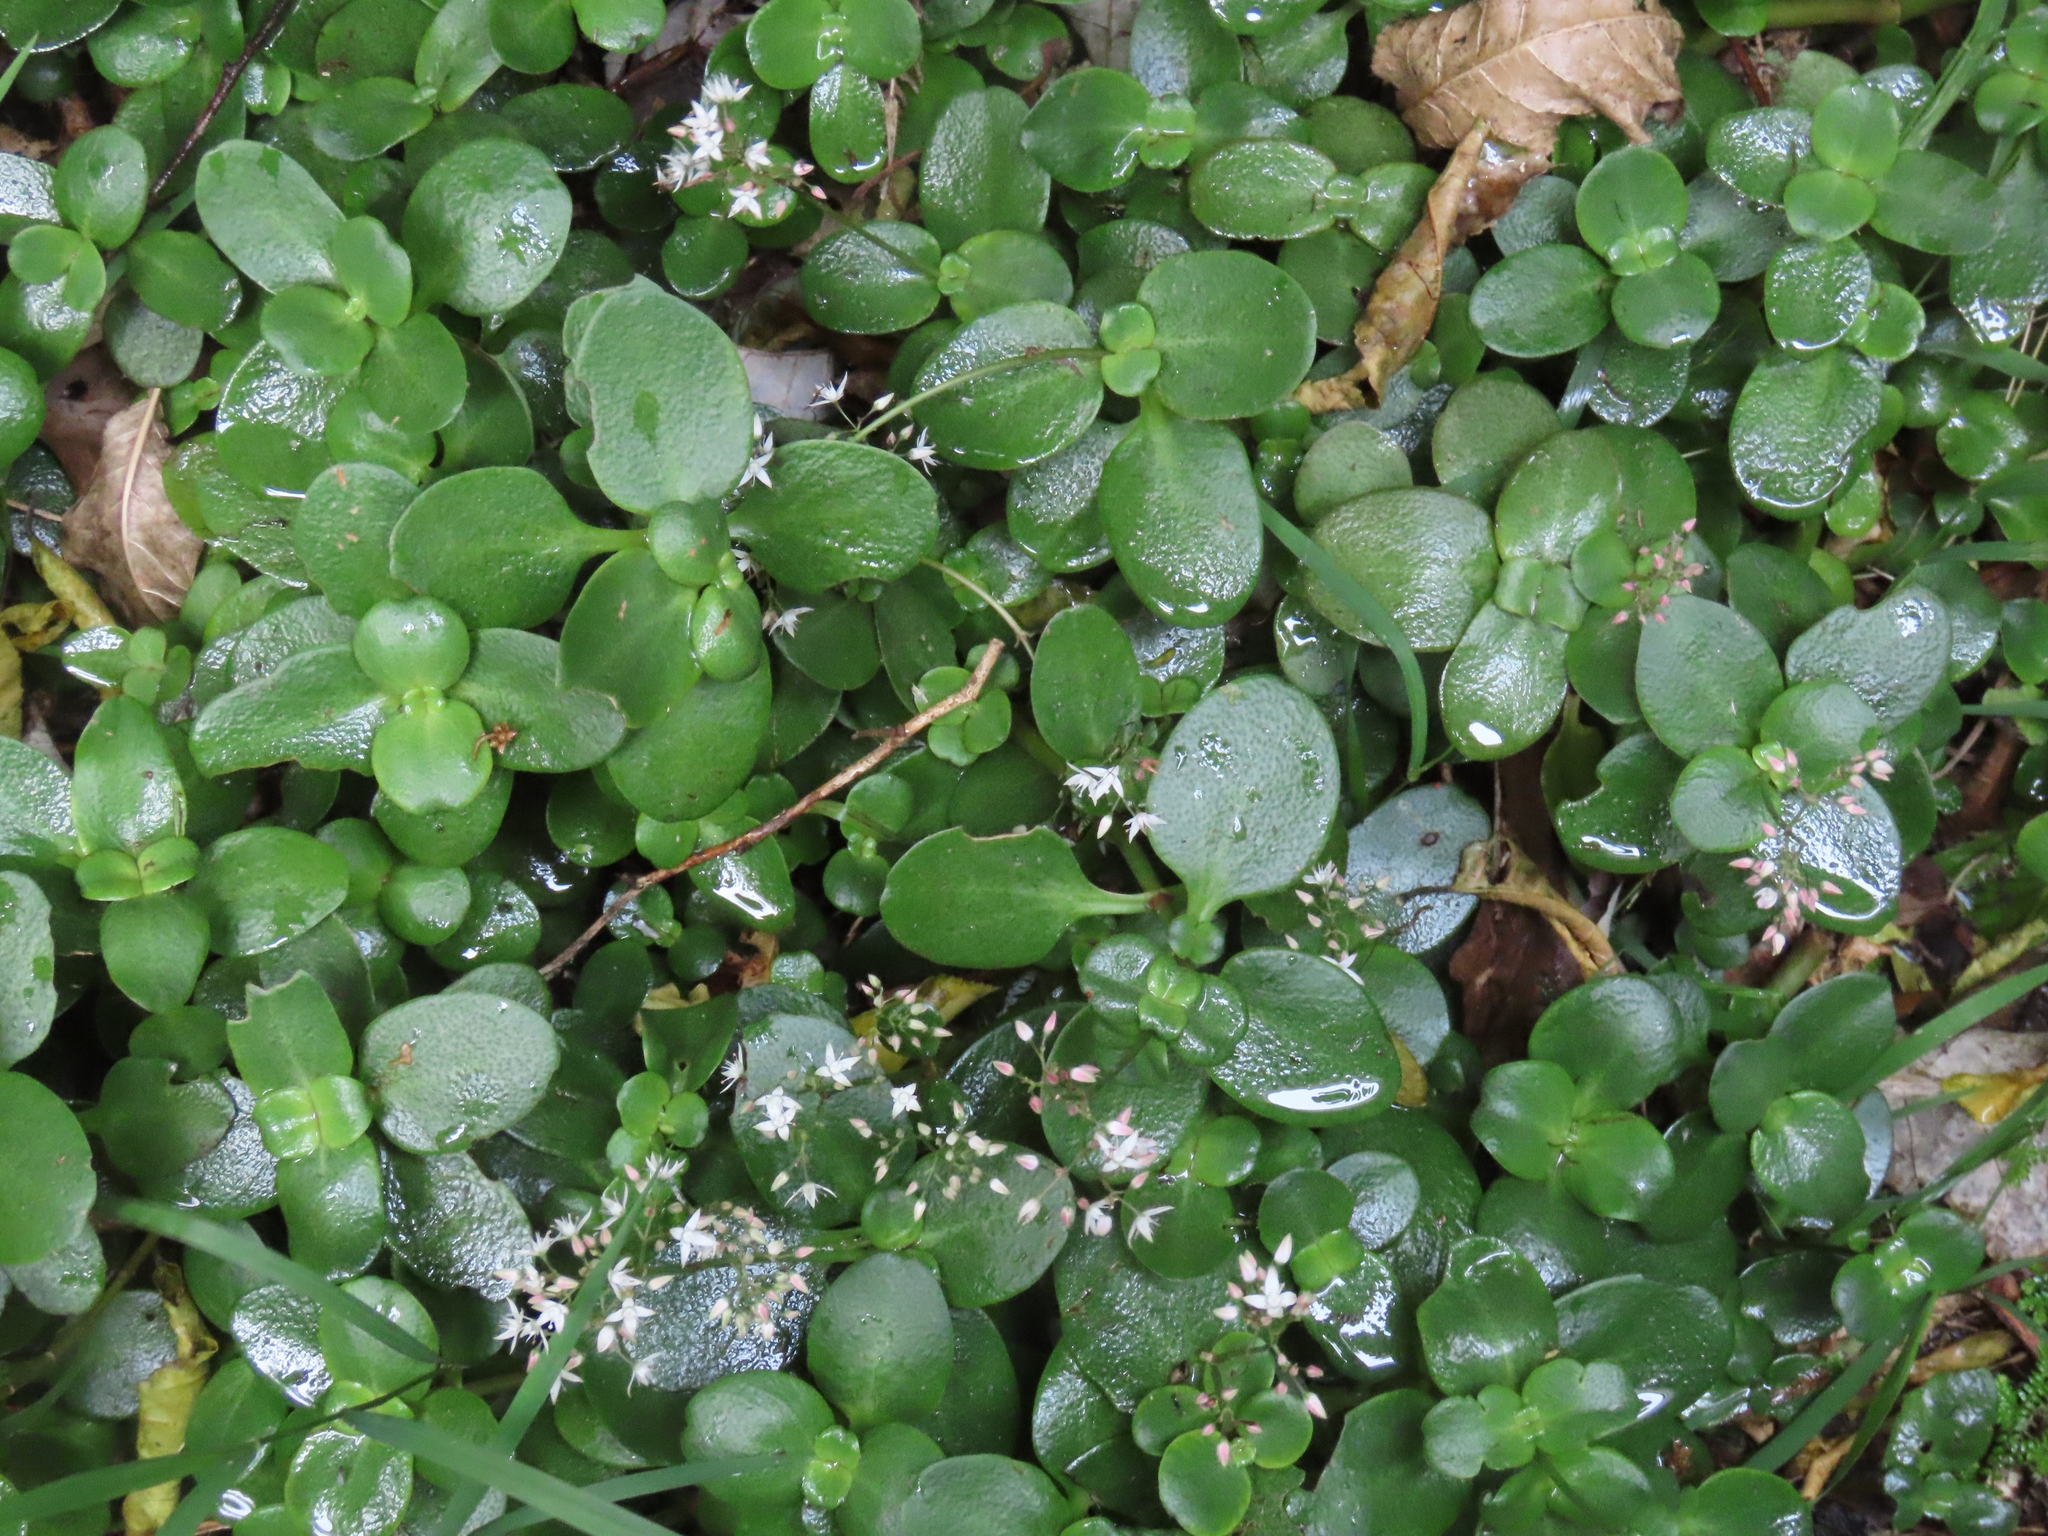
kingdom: Plantae
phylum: Tracheophyta
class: Magnoliopsida
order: Saxifragales
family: Crassulaceae
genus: Crassula
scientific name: Crassula multicava
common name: Cape province pygmyweed
